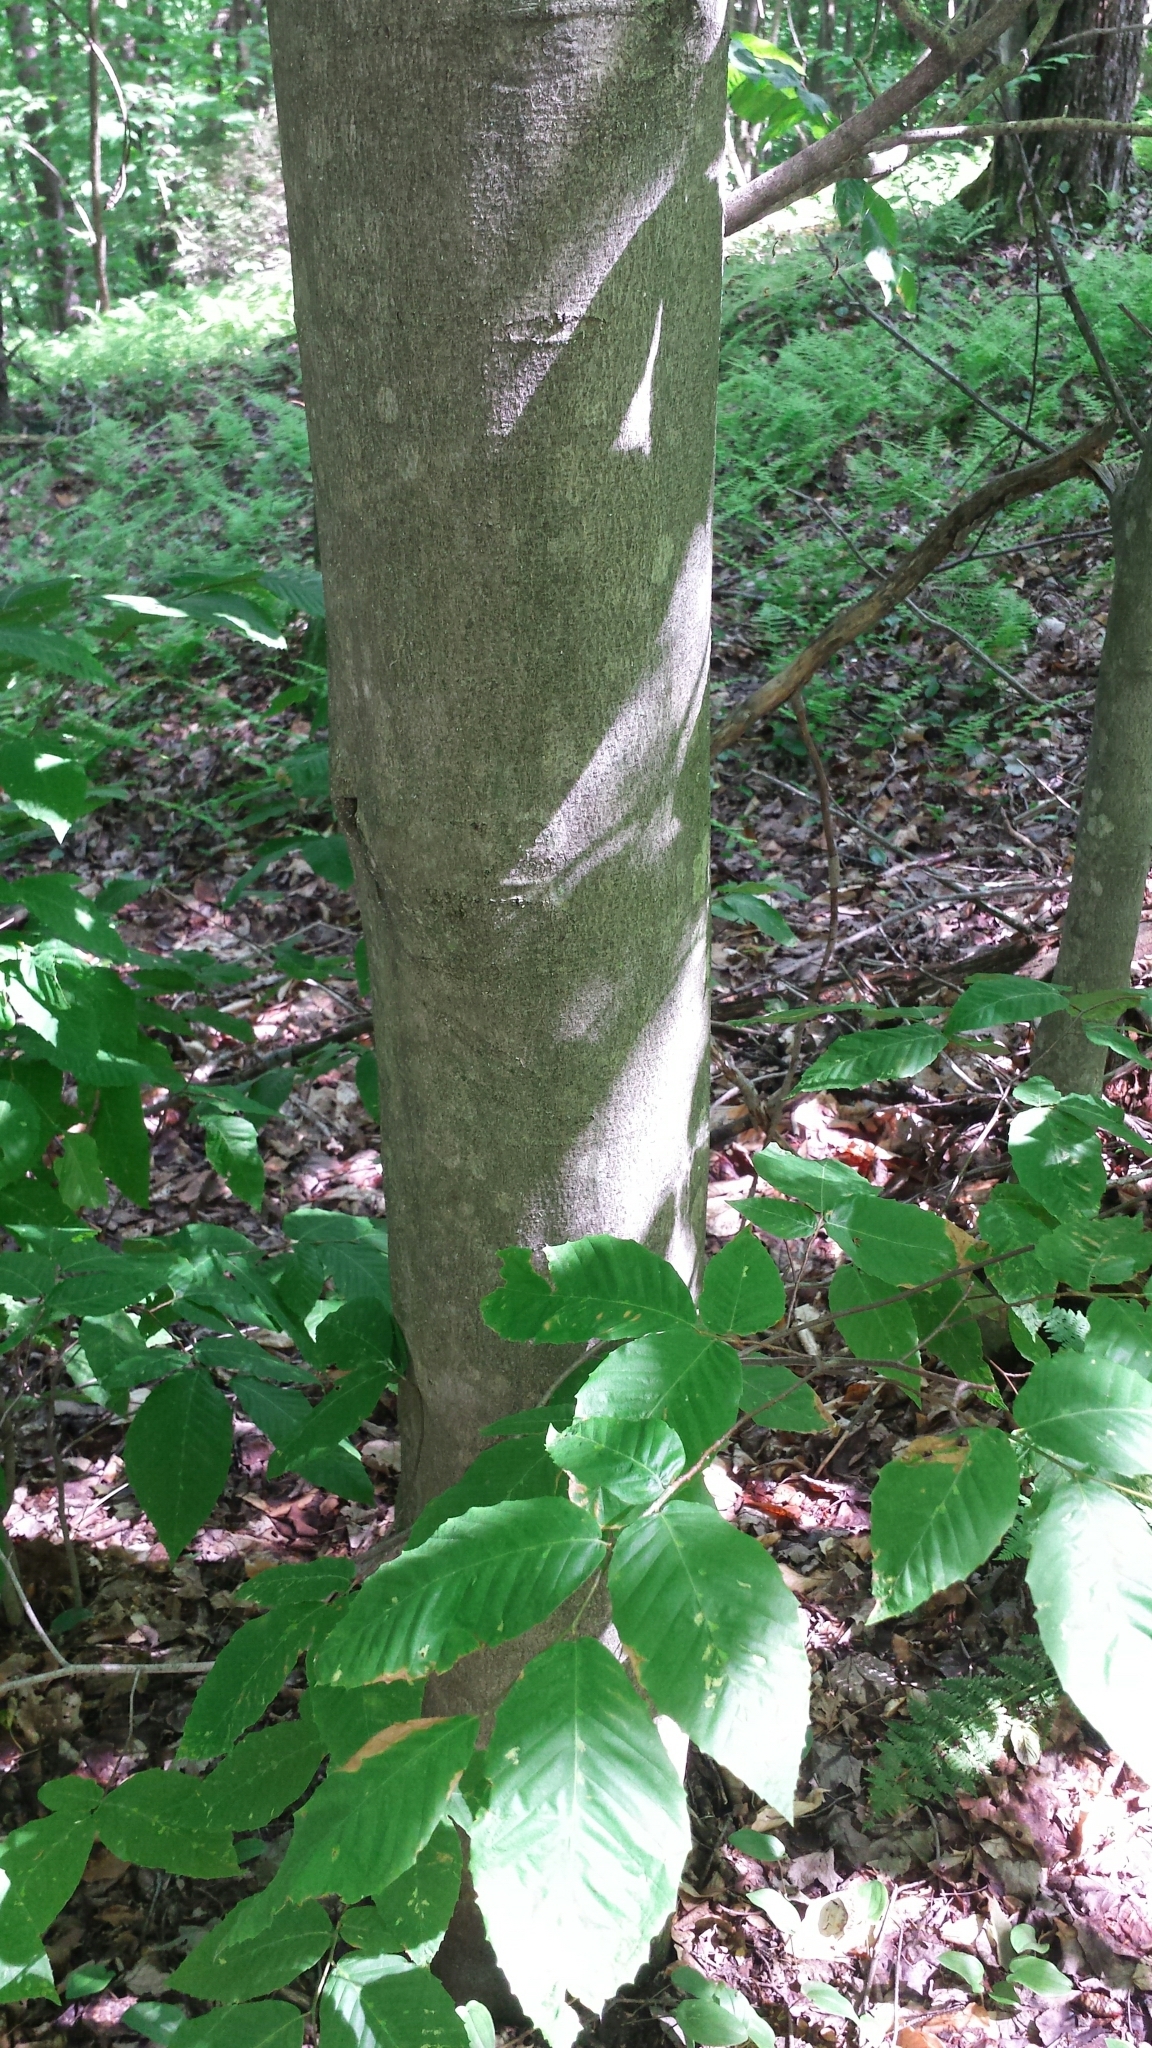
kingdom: Plantae
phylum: Tracheophyta
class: Magnoliopsida
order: Fagales
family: Fagaceae
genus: Fagus
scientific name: Fagus grandifolia
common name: American beech
